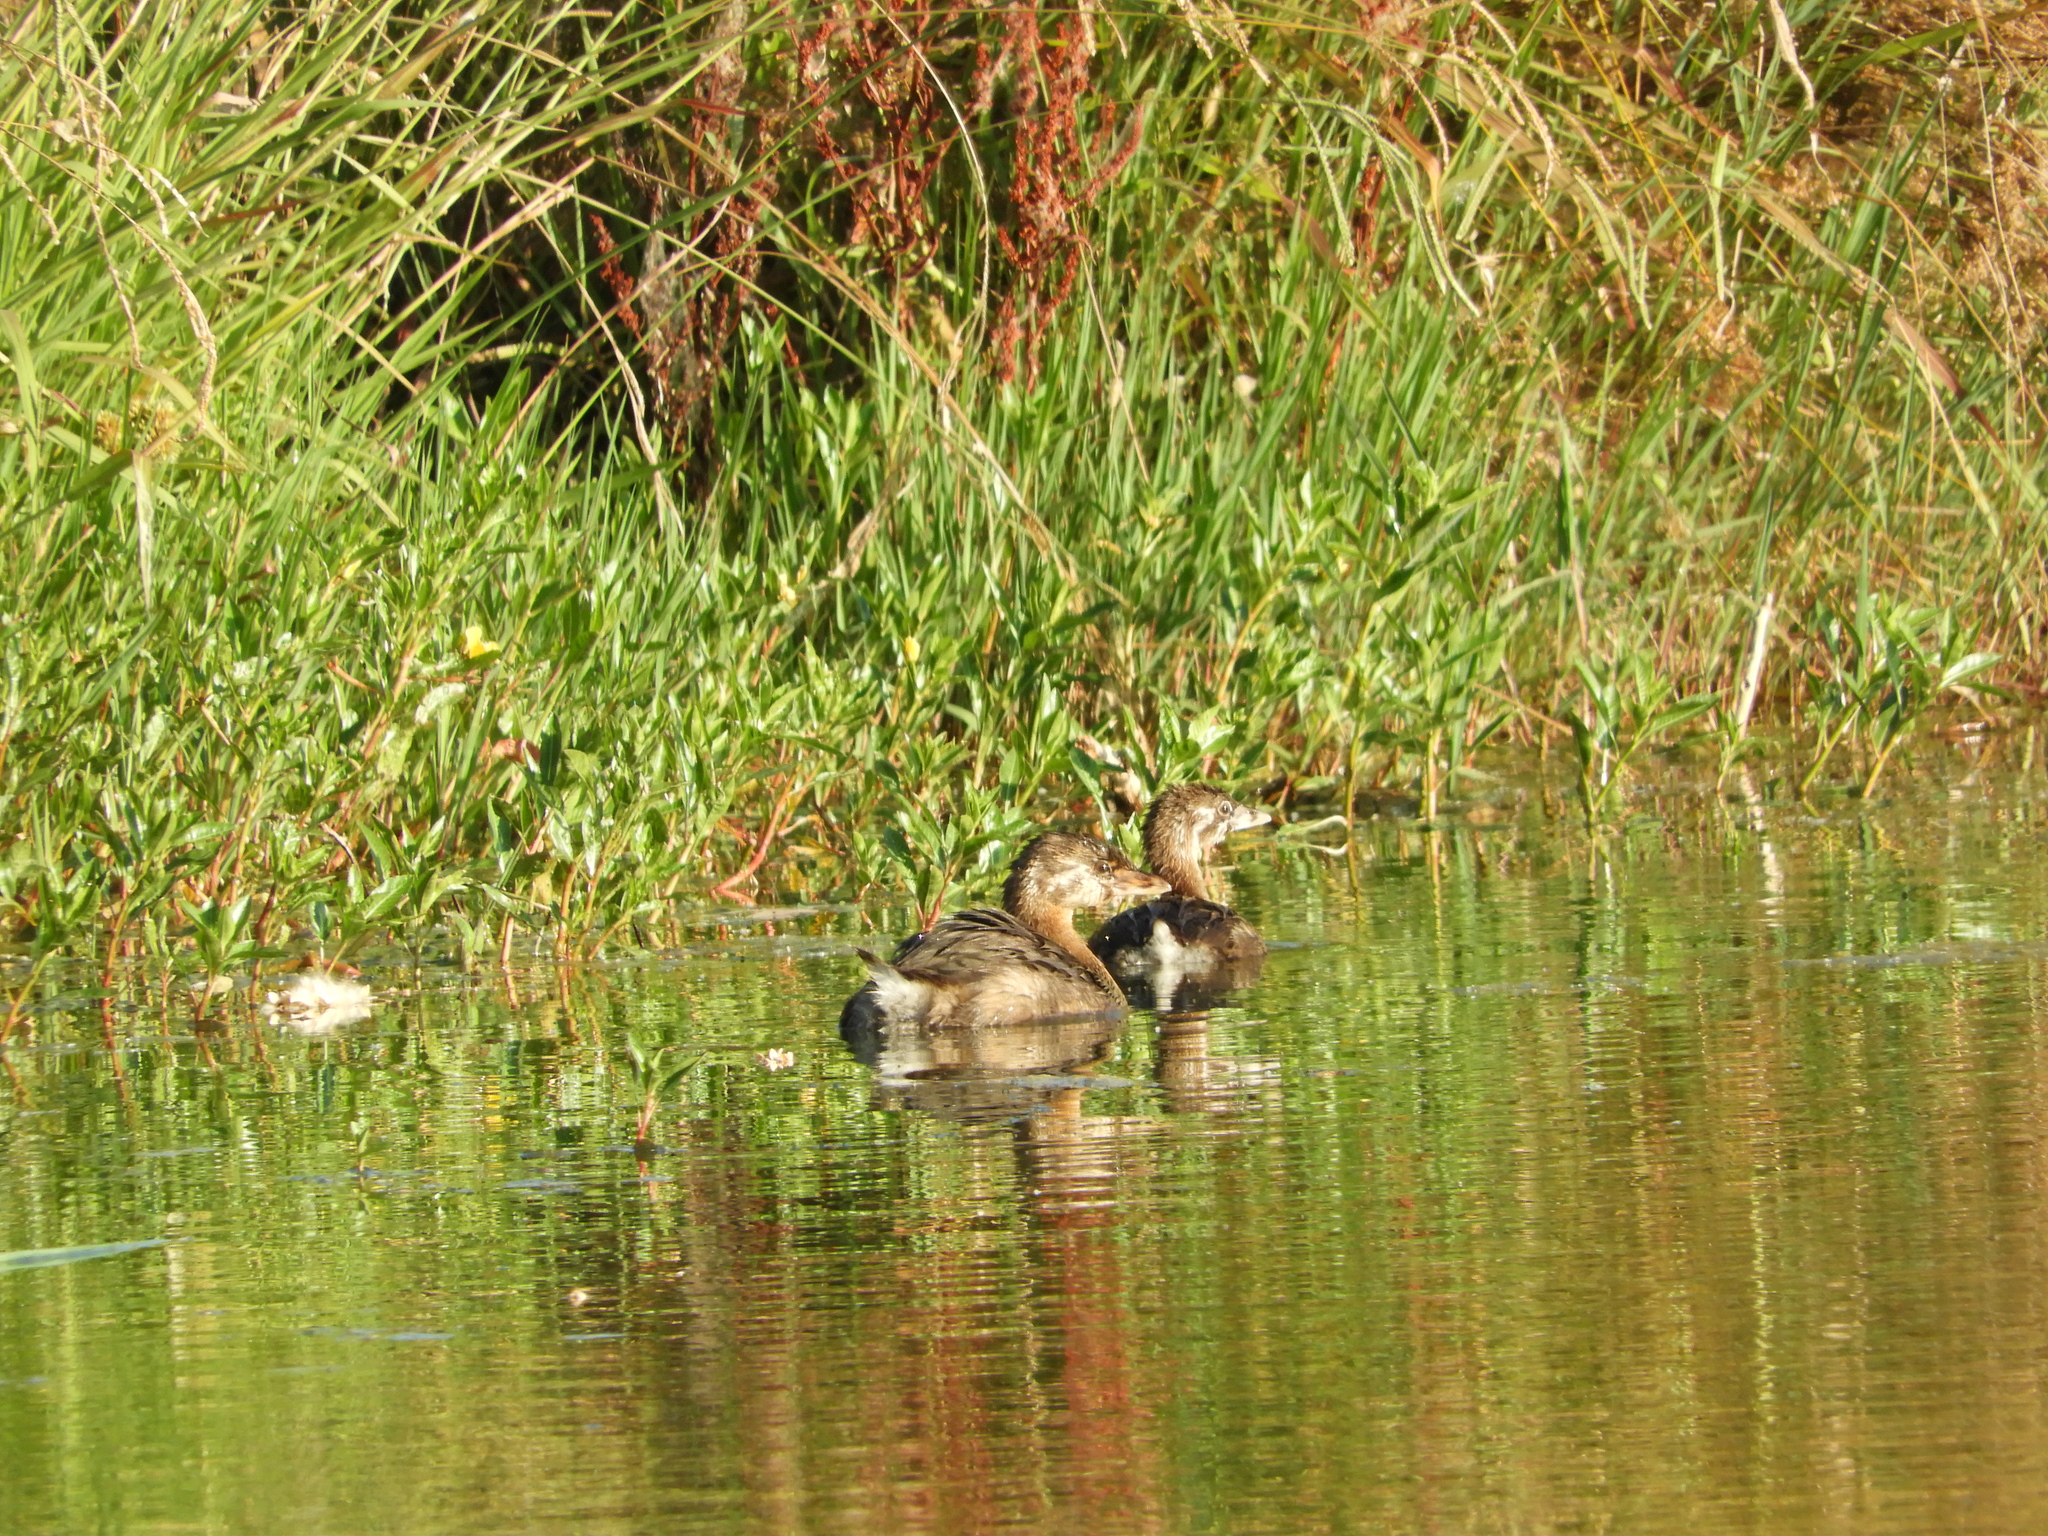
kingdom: Animalia
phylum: Chordata
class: Aves
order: Podicipediformes
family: Podicipedidae
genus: Podilymbus
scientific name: Podilymbus podiceps
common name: Pied-billed grebe
